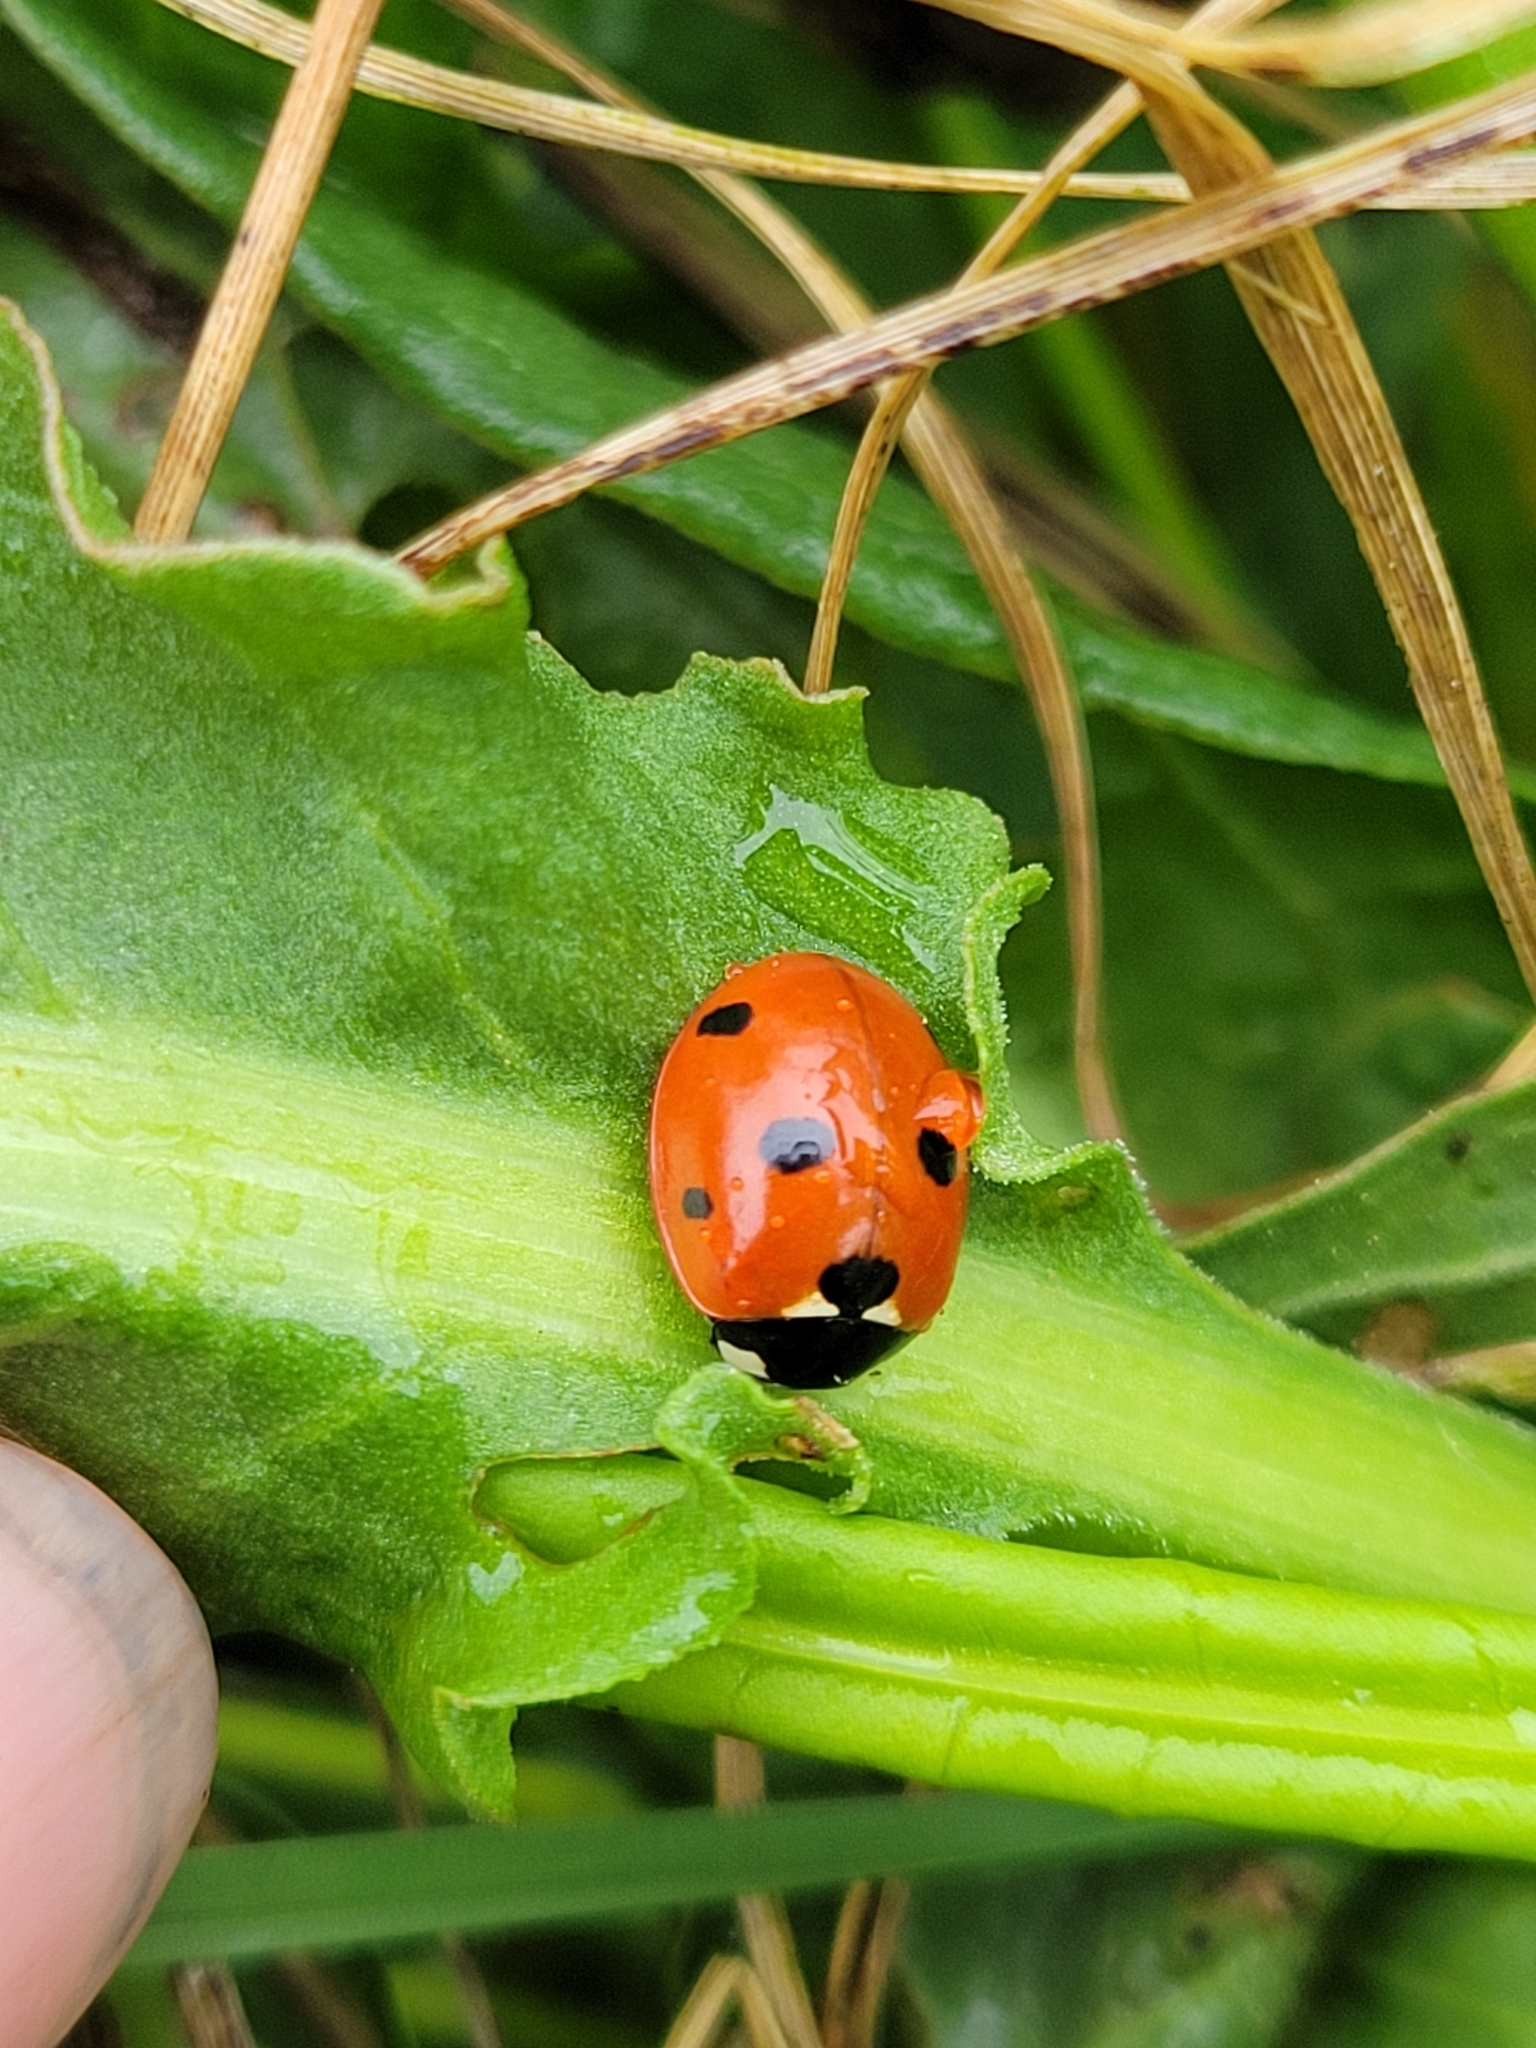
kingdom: Animalia
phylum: Arthropoda
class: Insecta
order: Coleoptera
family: Coccinellidae
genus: Coccinella
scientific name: Coccinella septempunctata
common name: Sevenspotted lady beetle
